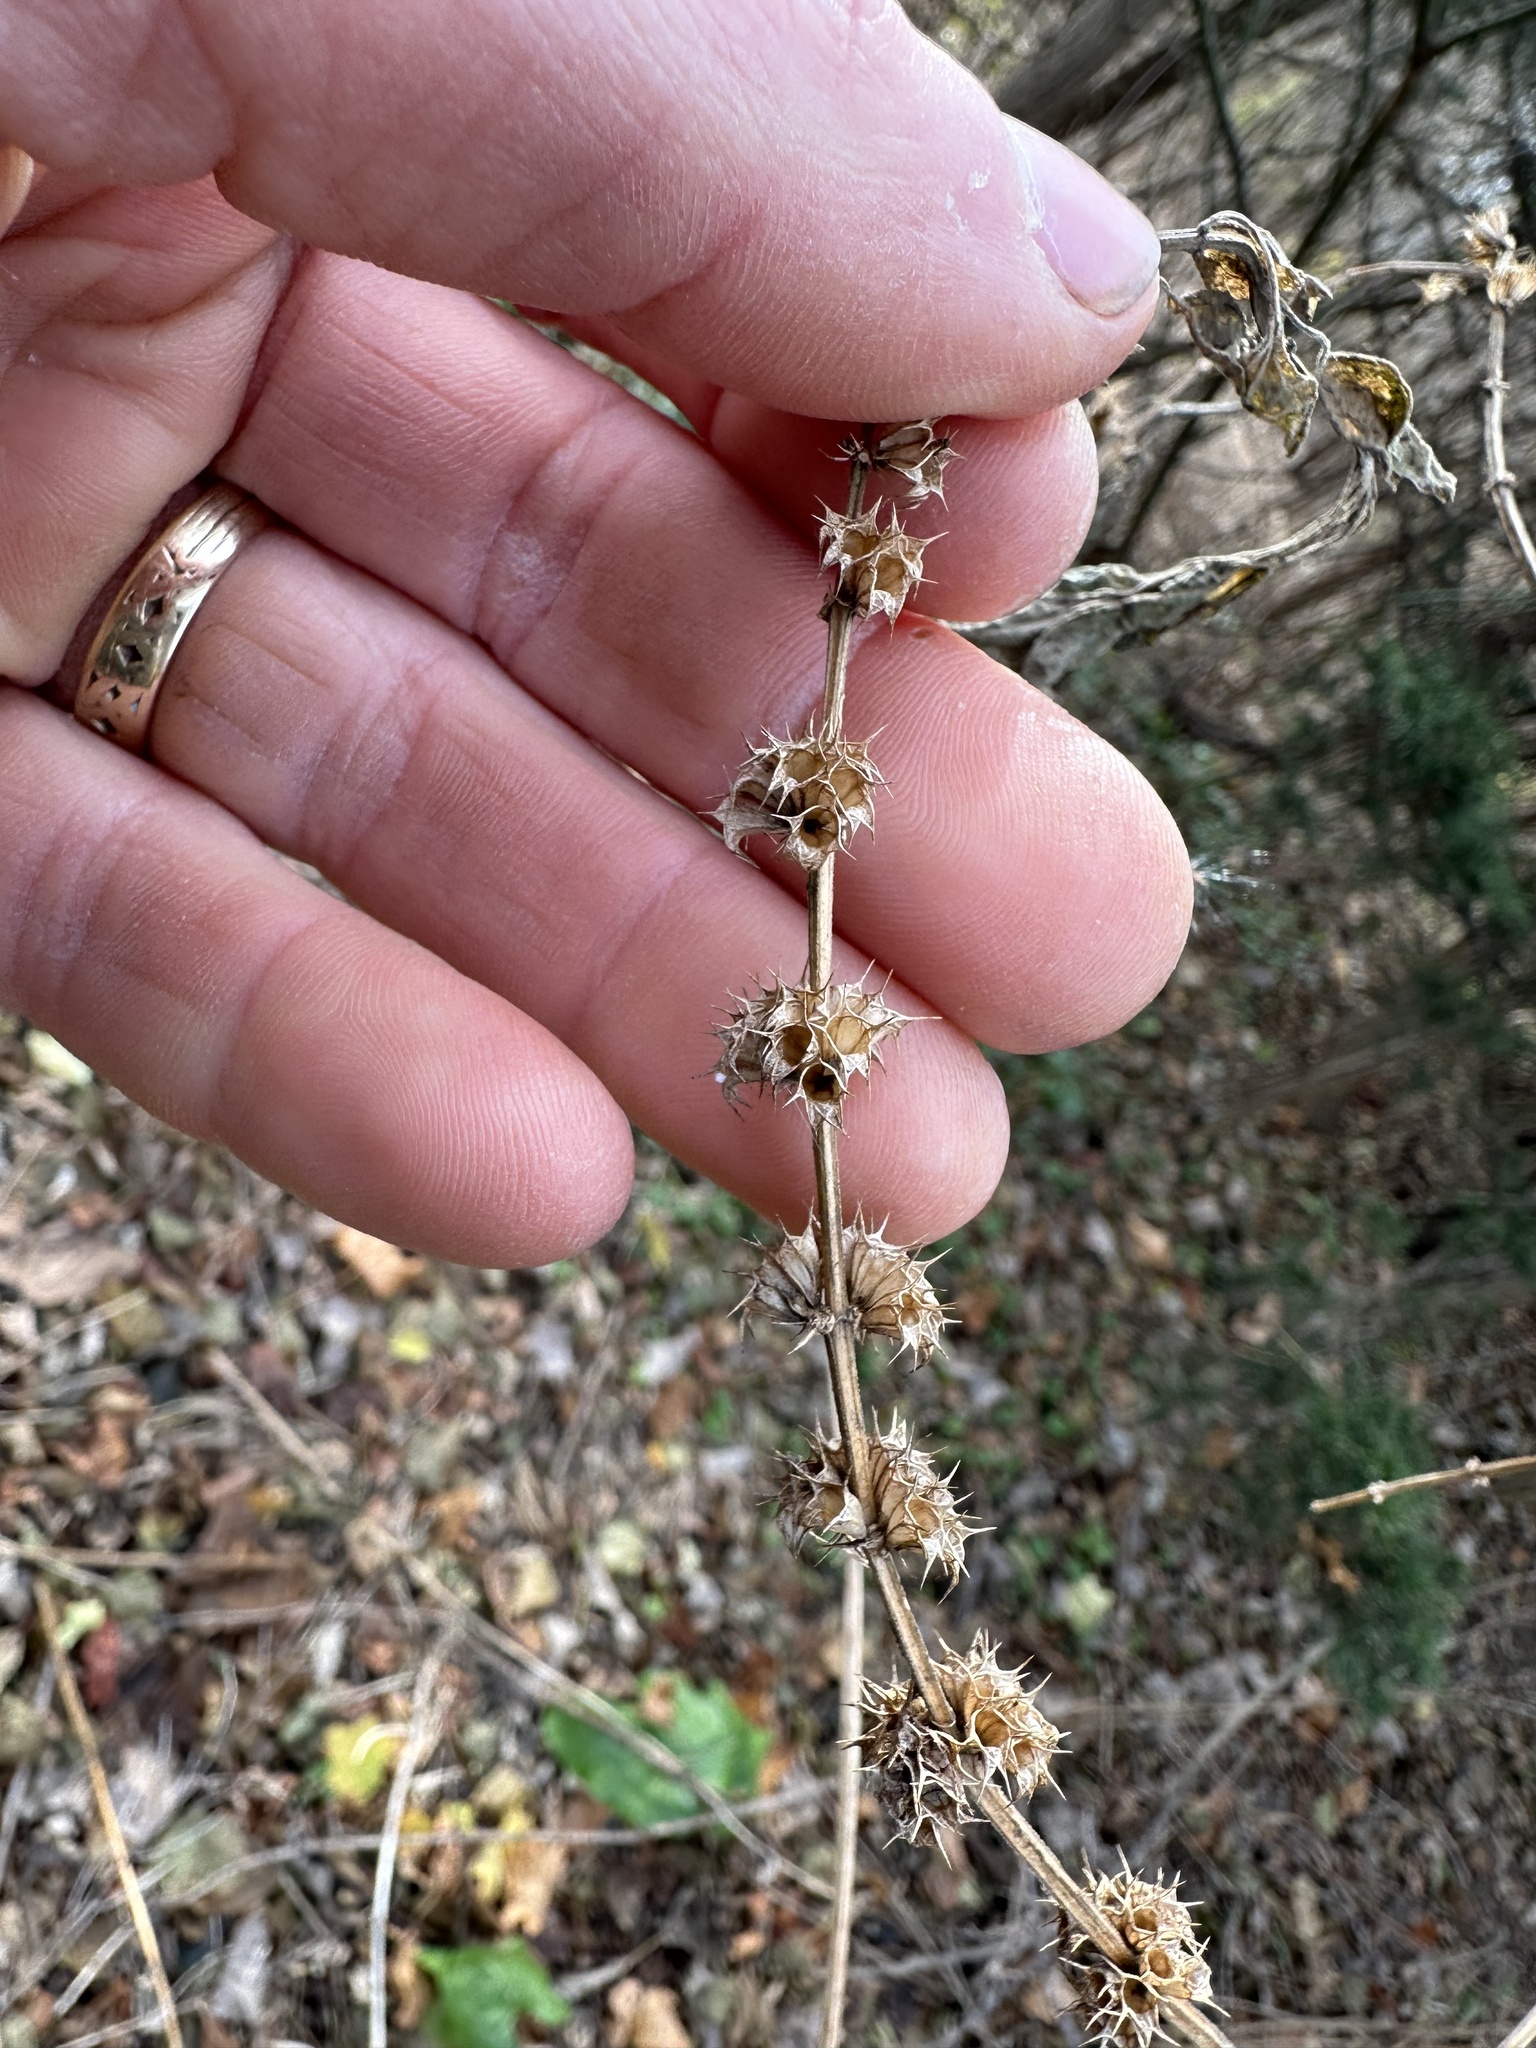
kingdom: Plantae
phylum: Tracheophyta
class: Magnoliopsida
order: Lamiales
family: Lamiaceae
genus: Leonurus
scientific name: Leonurus cardiaca
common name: Motherwort
